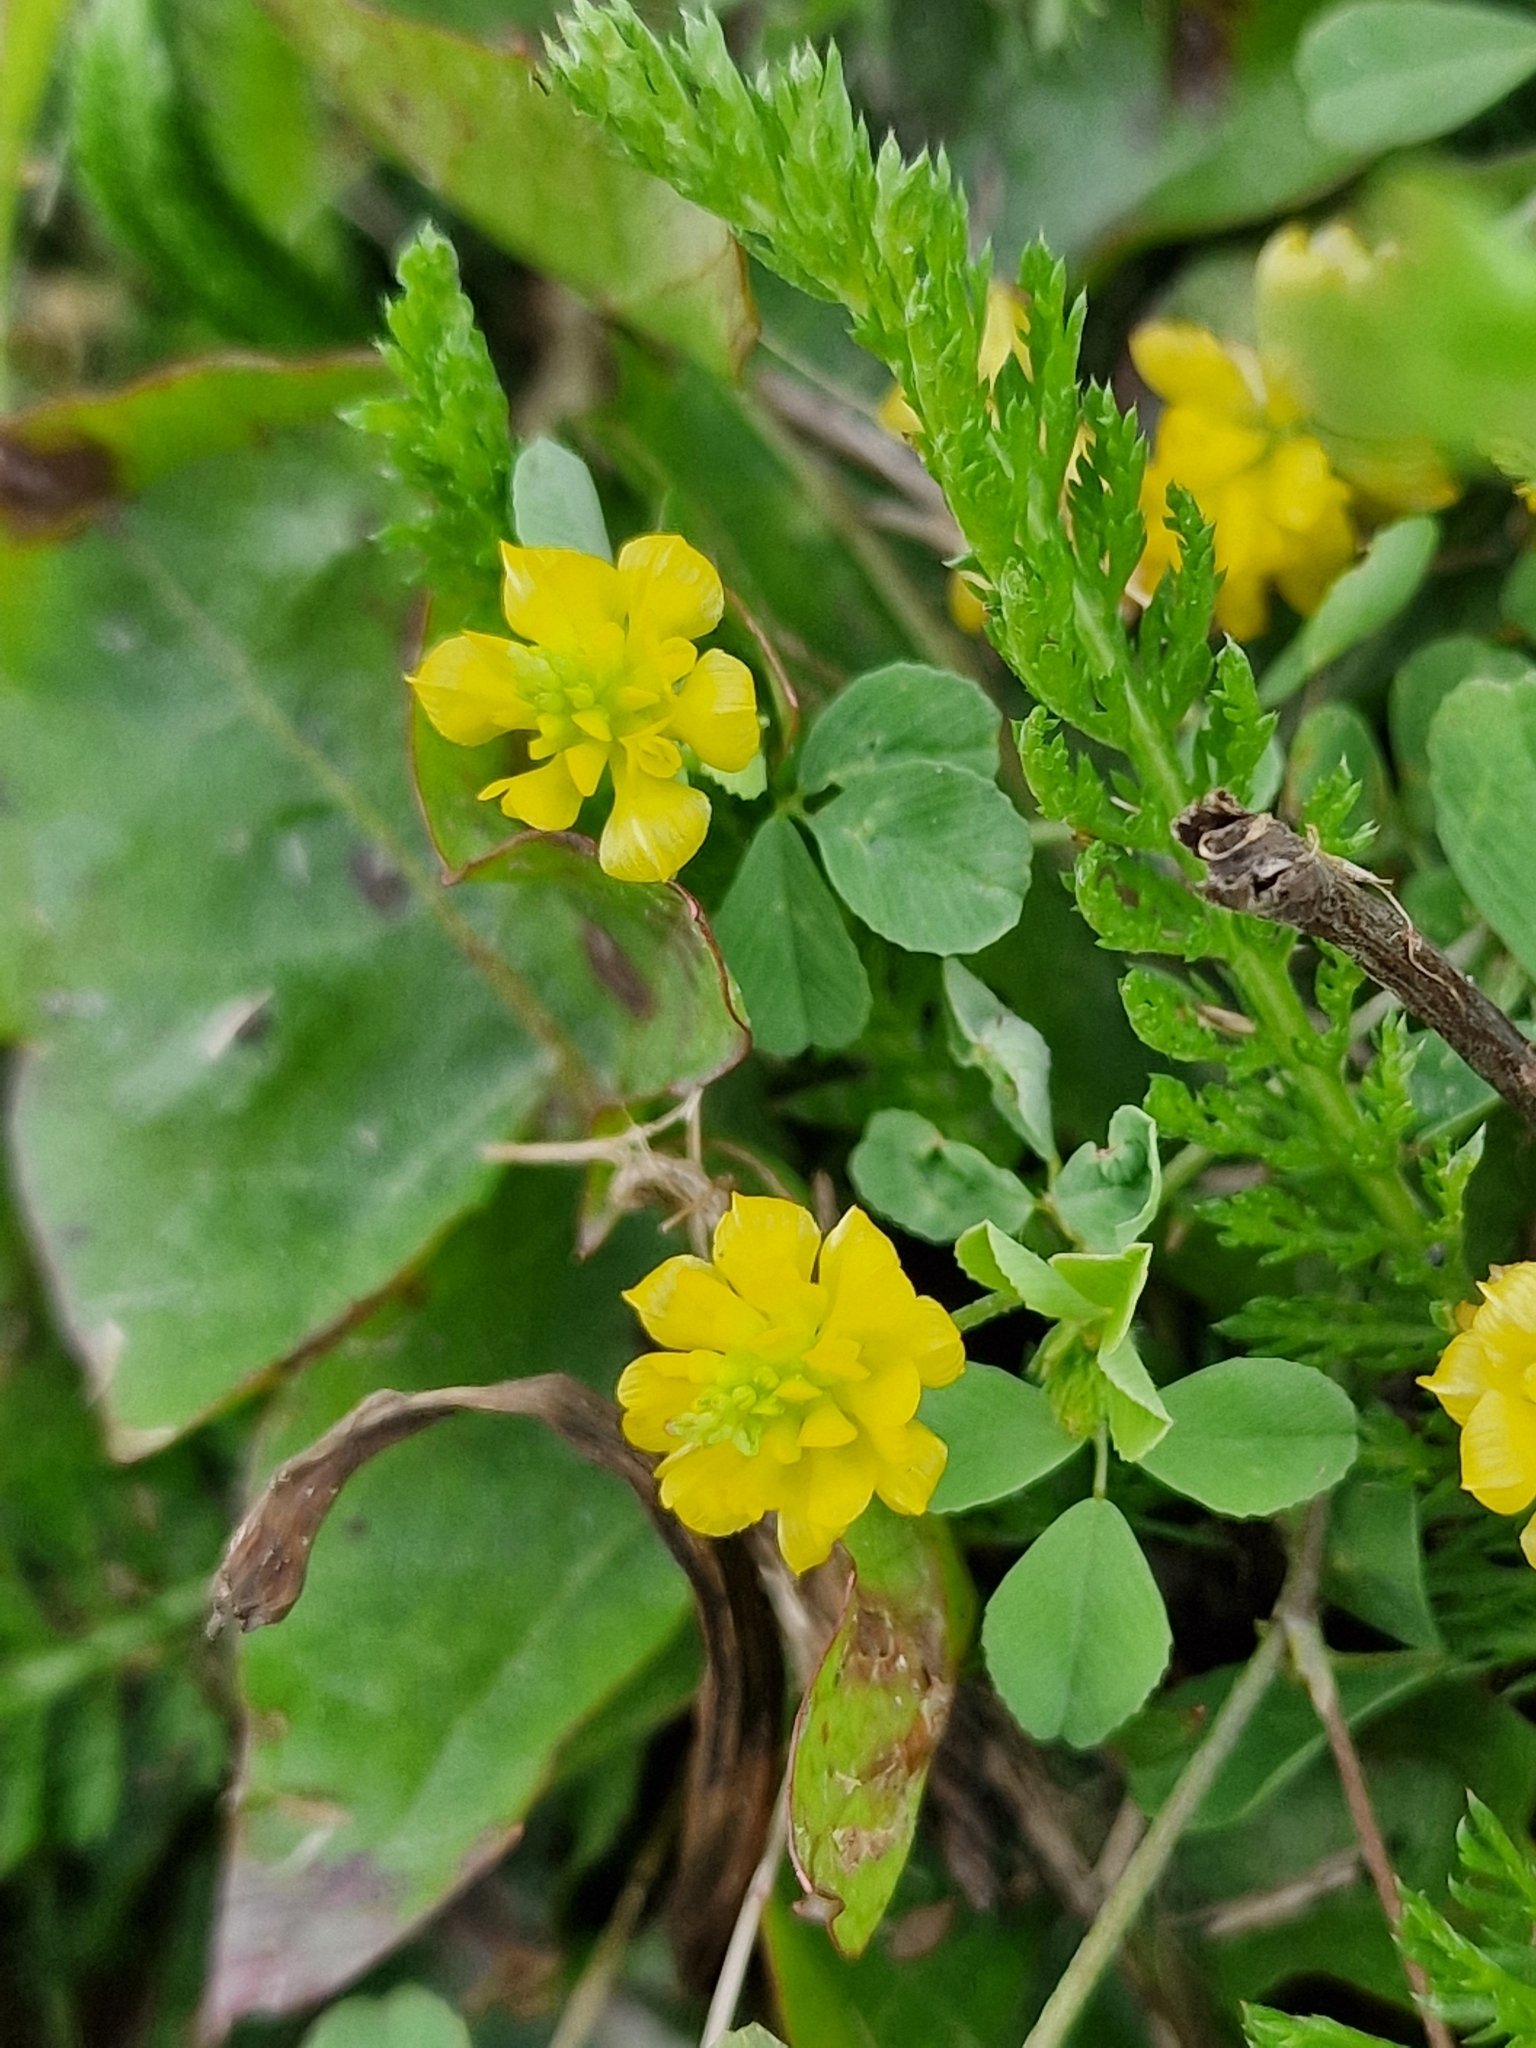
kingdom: Plantae
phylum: Tracheophyta
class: Magnoliopsida
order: Fabales
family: Fabaceae
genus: Trifolium
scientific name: Trifolium campestre
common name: Field clover
